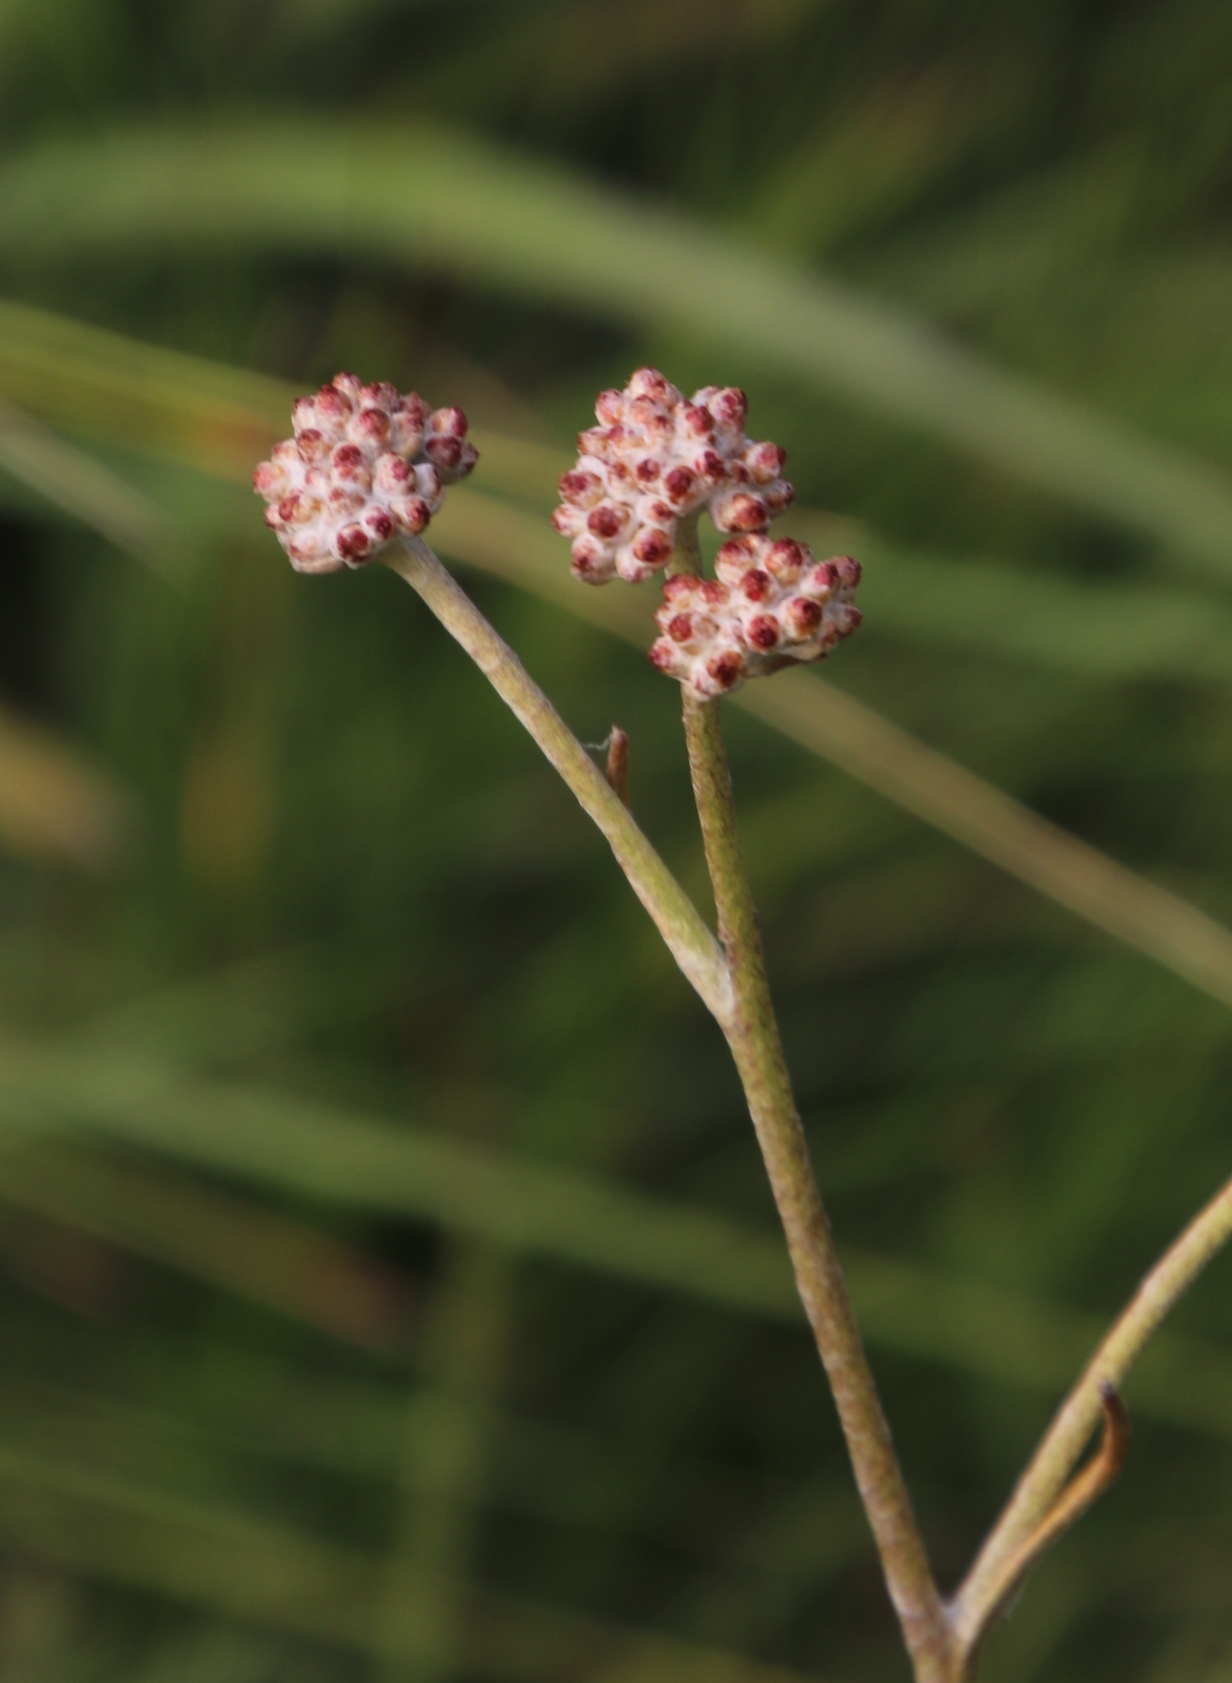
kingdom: Plantae
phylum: Tracheophyta
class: Magnoliopsida
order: Asterales
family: Asteraceae
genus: Helichrysum
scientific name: Helichrysum calocephalum
